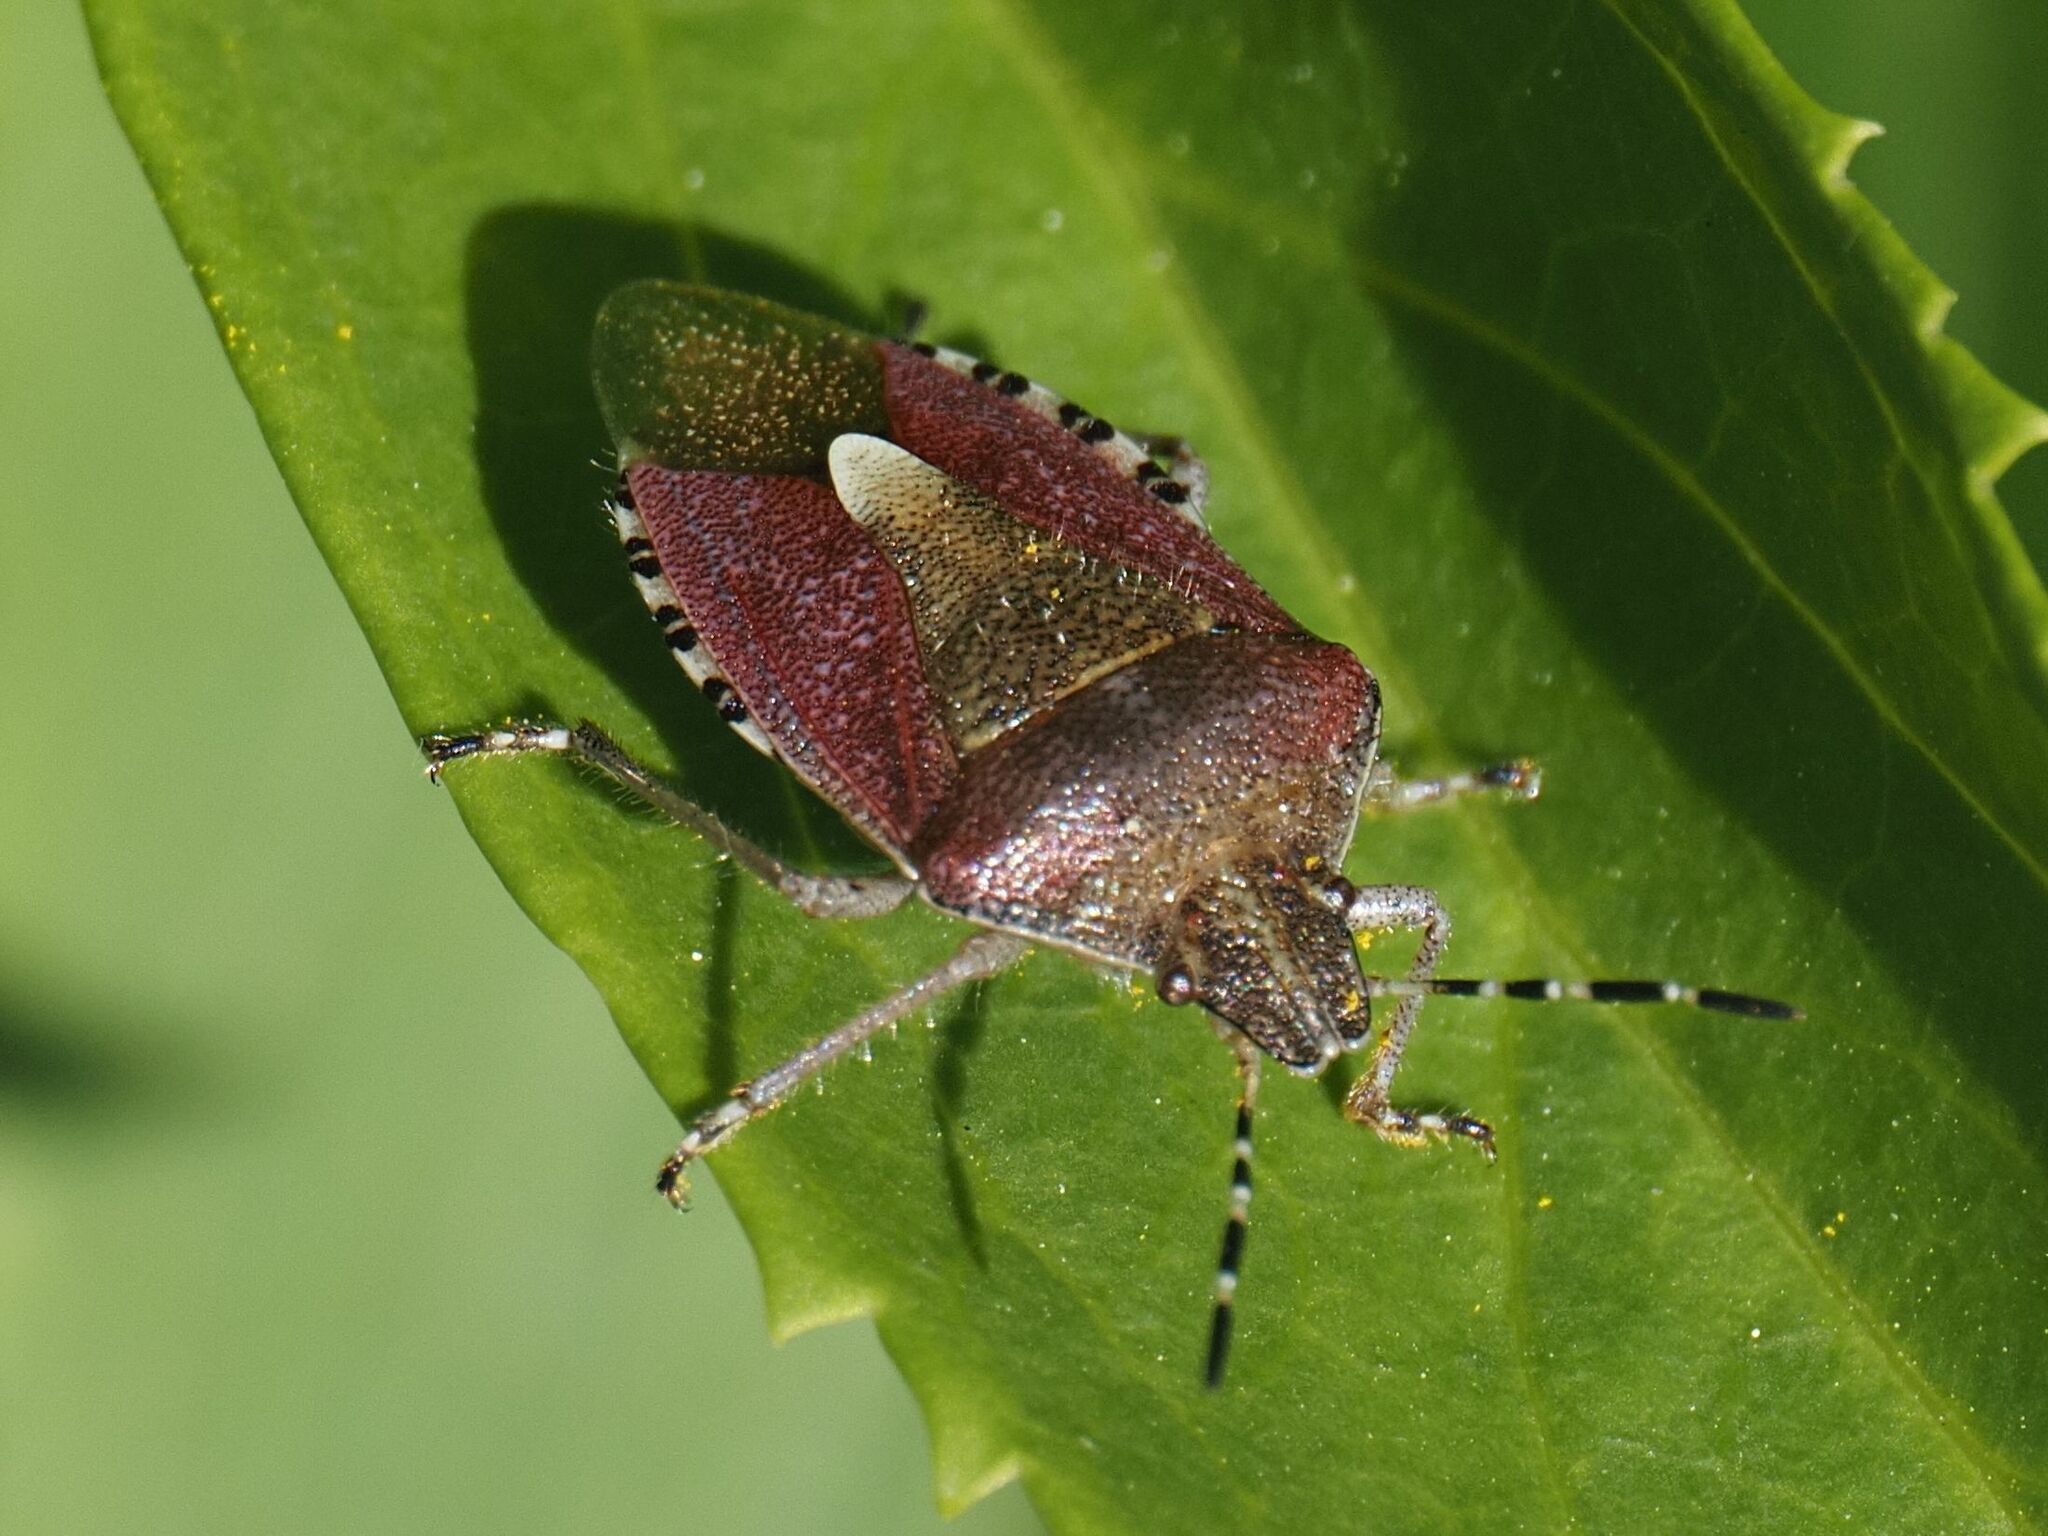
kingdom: Animalia
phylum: Arthropoda
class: Insecta
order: Hemiptera
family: Pentatomidae
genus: Dolycoris
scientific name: Dolycoris baccarum
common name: Sloe bug
